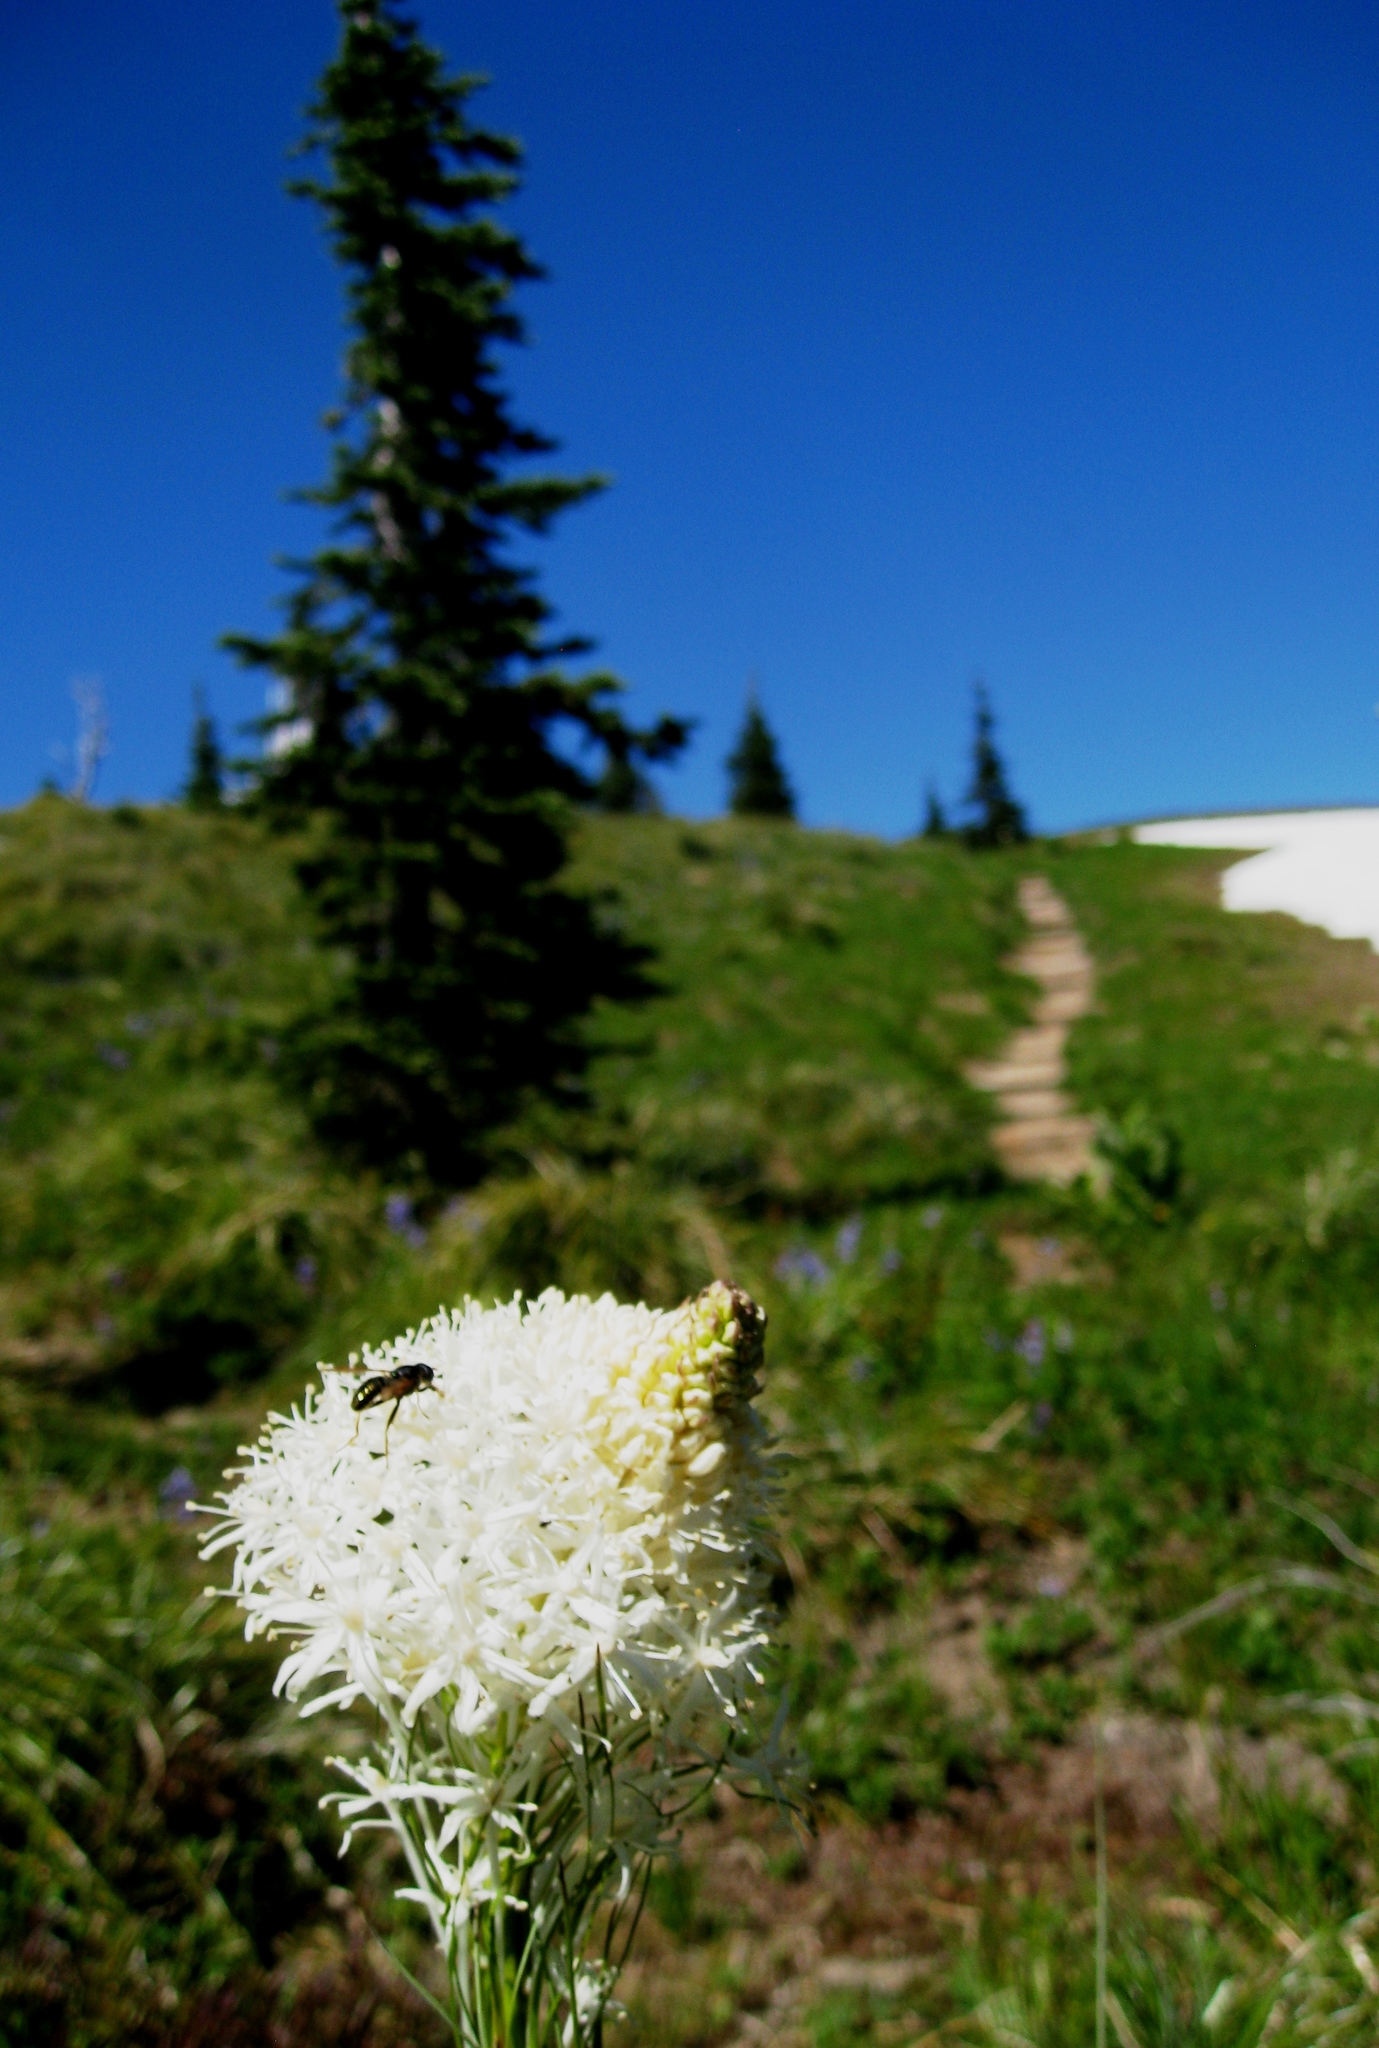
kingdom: Plantae
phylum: Tracheophyta
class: Liliopsida
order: Liliales
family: Melanthiaceae
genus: Xerophyllum
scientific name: Xerophyllum tenax
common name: Bear-grass
